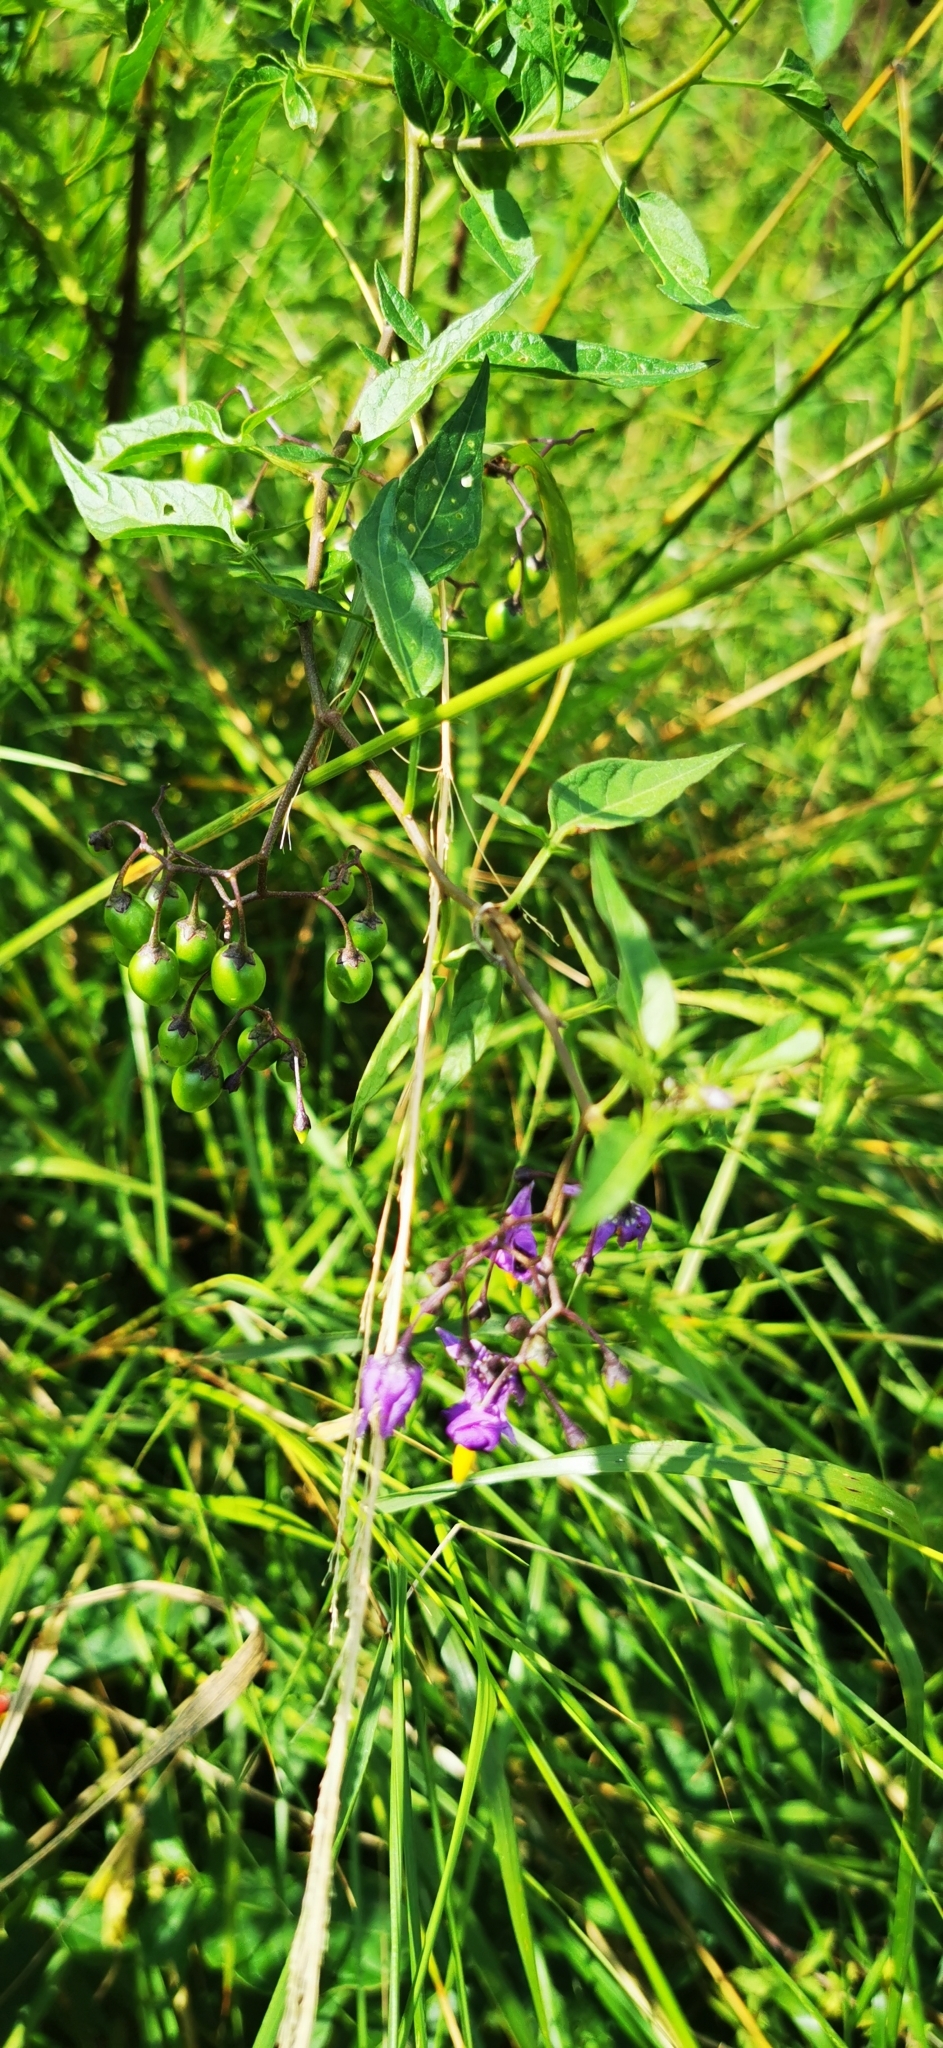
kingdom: Plantae
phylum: Tracheophyta
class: Magnoliopsida
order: Solanales
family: Solanaceae
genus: Solanum
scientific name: Solanum dulcamara
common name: Climbing nightshade
